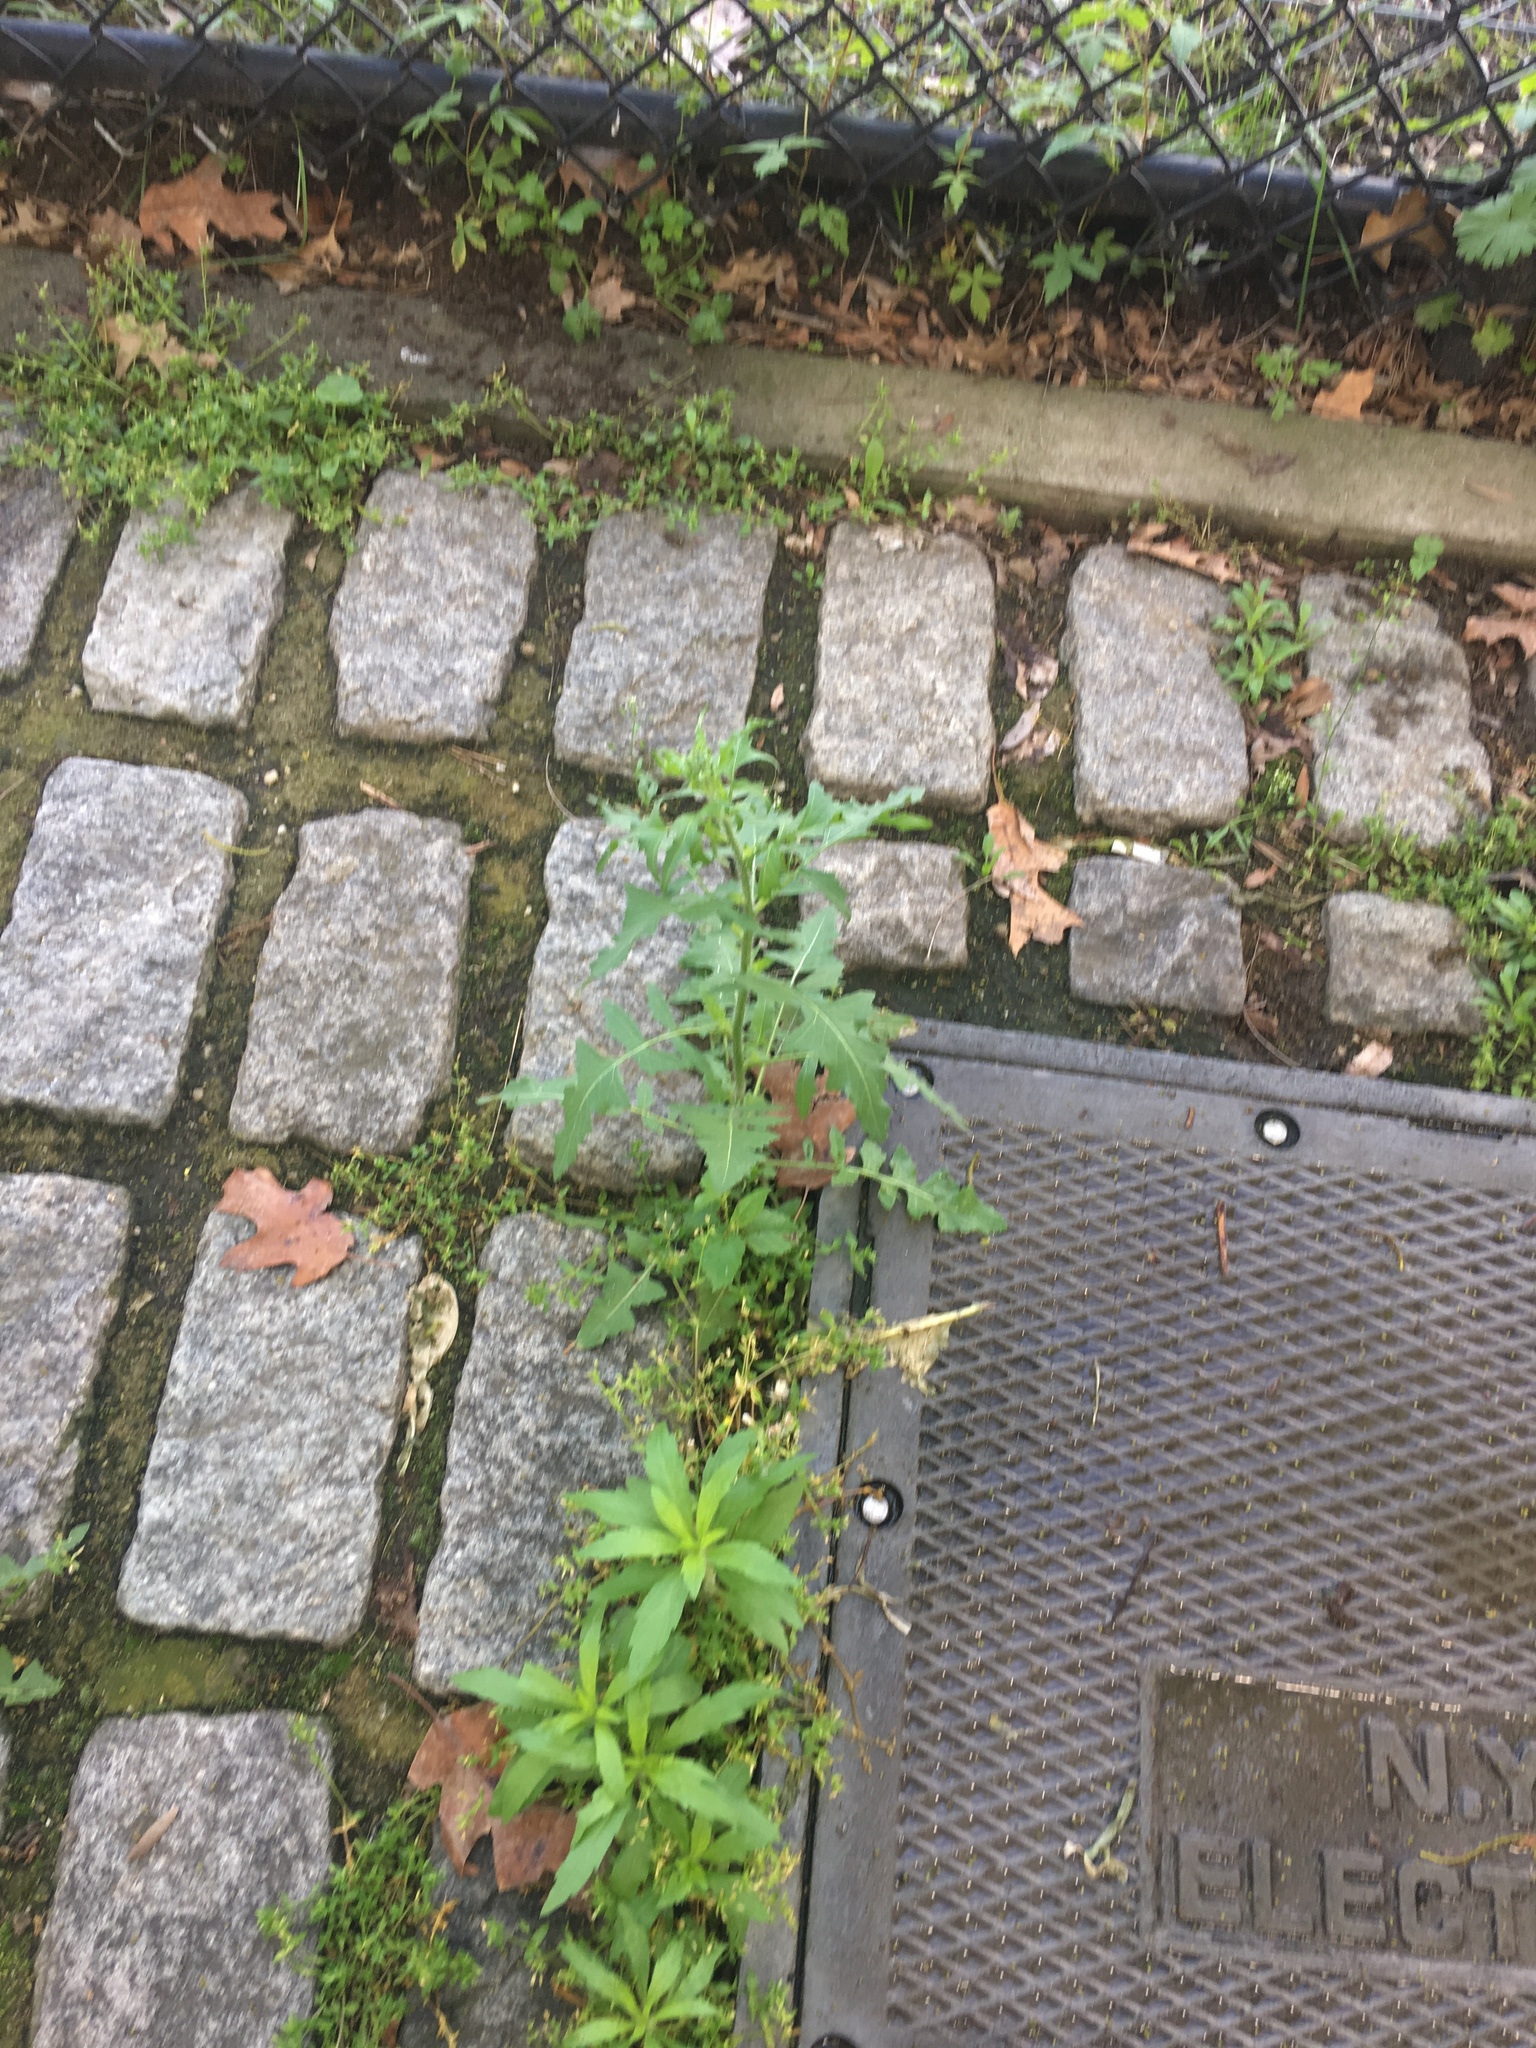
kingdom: Plantae
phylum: Tracheophyta
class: Magnoliopsida
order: Brassicales
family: Brassicaceae
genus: Sisymbrium
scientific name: Sisymbrium loeselii
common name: False london-rocket
